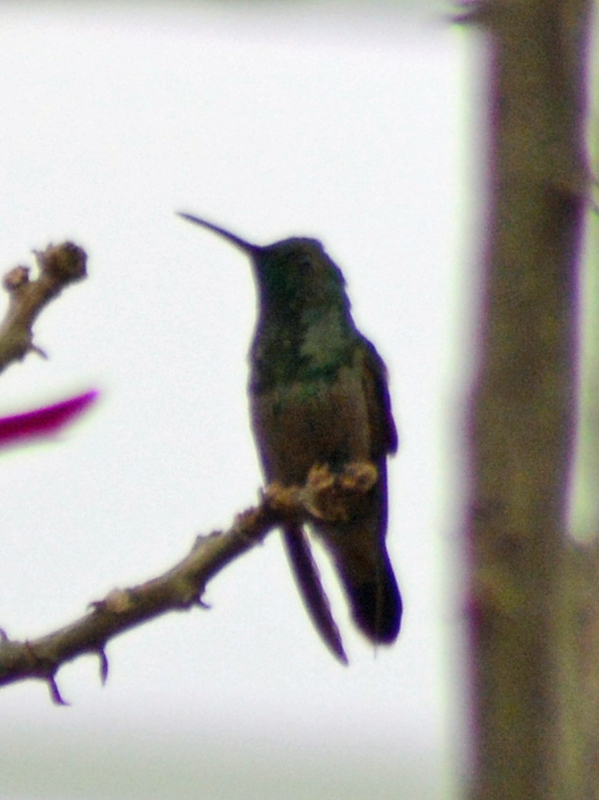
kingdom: Animalia
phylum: Chordata
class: Aves
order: Apodiformes
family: Trochilidae
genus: Saucerottia
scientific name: Saucerottia beryllina
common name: Berylline hummingbird
